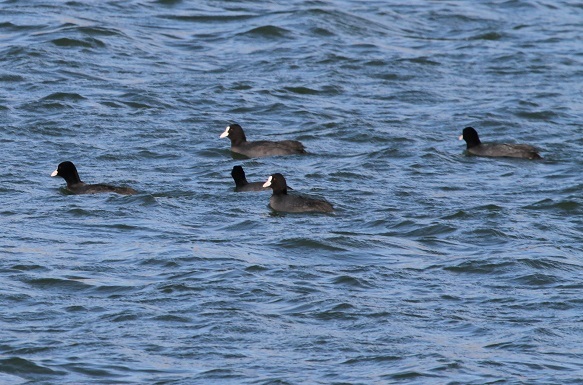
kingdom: Animalia
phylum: Chordata
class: Aves
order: Gruiformes
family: Rallidae
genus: Fulica
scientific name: Fulica atra
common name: Eurasian coot
